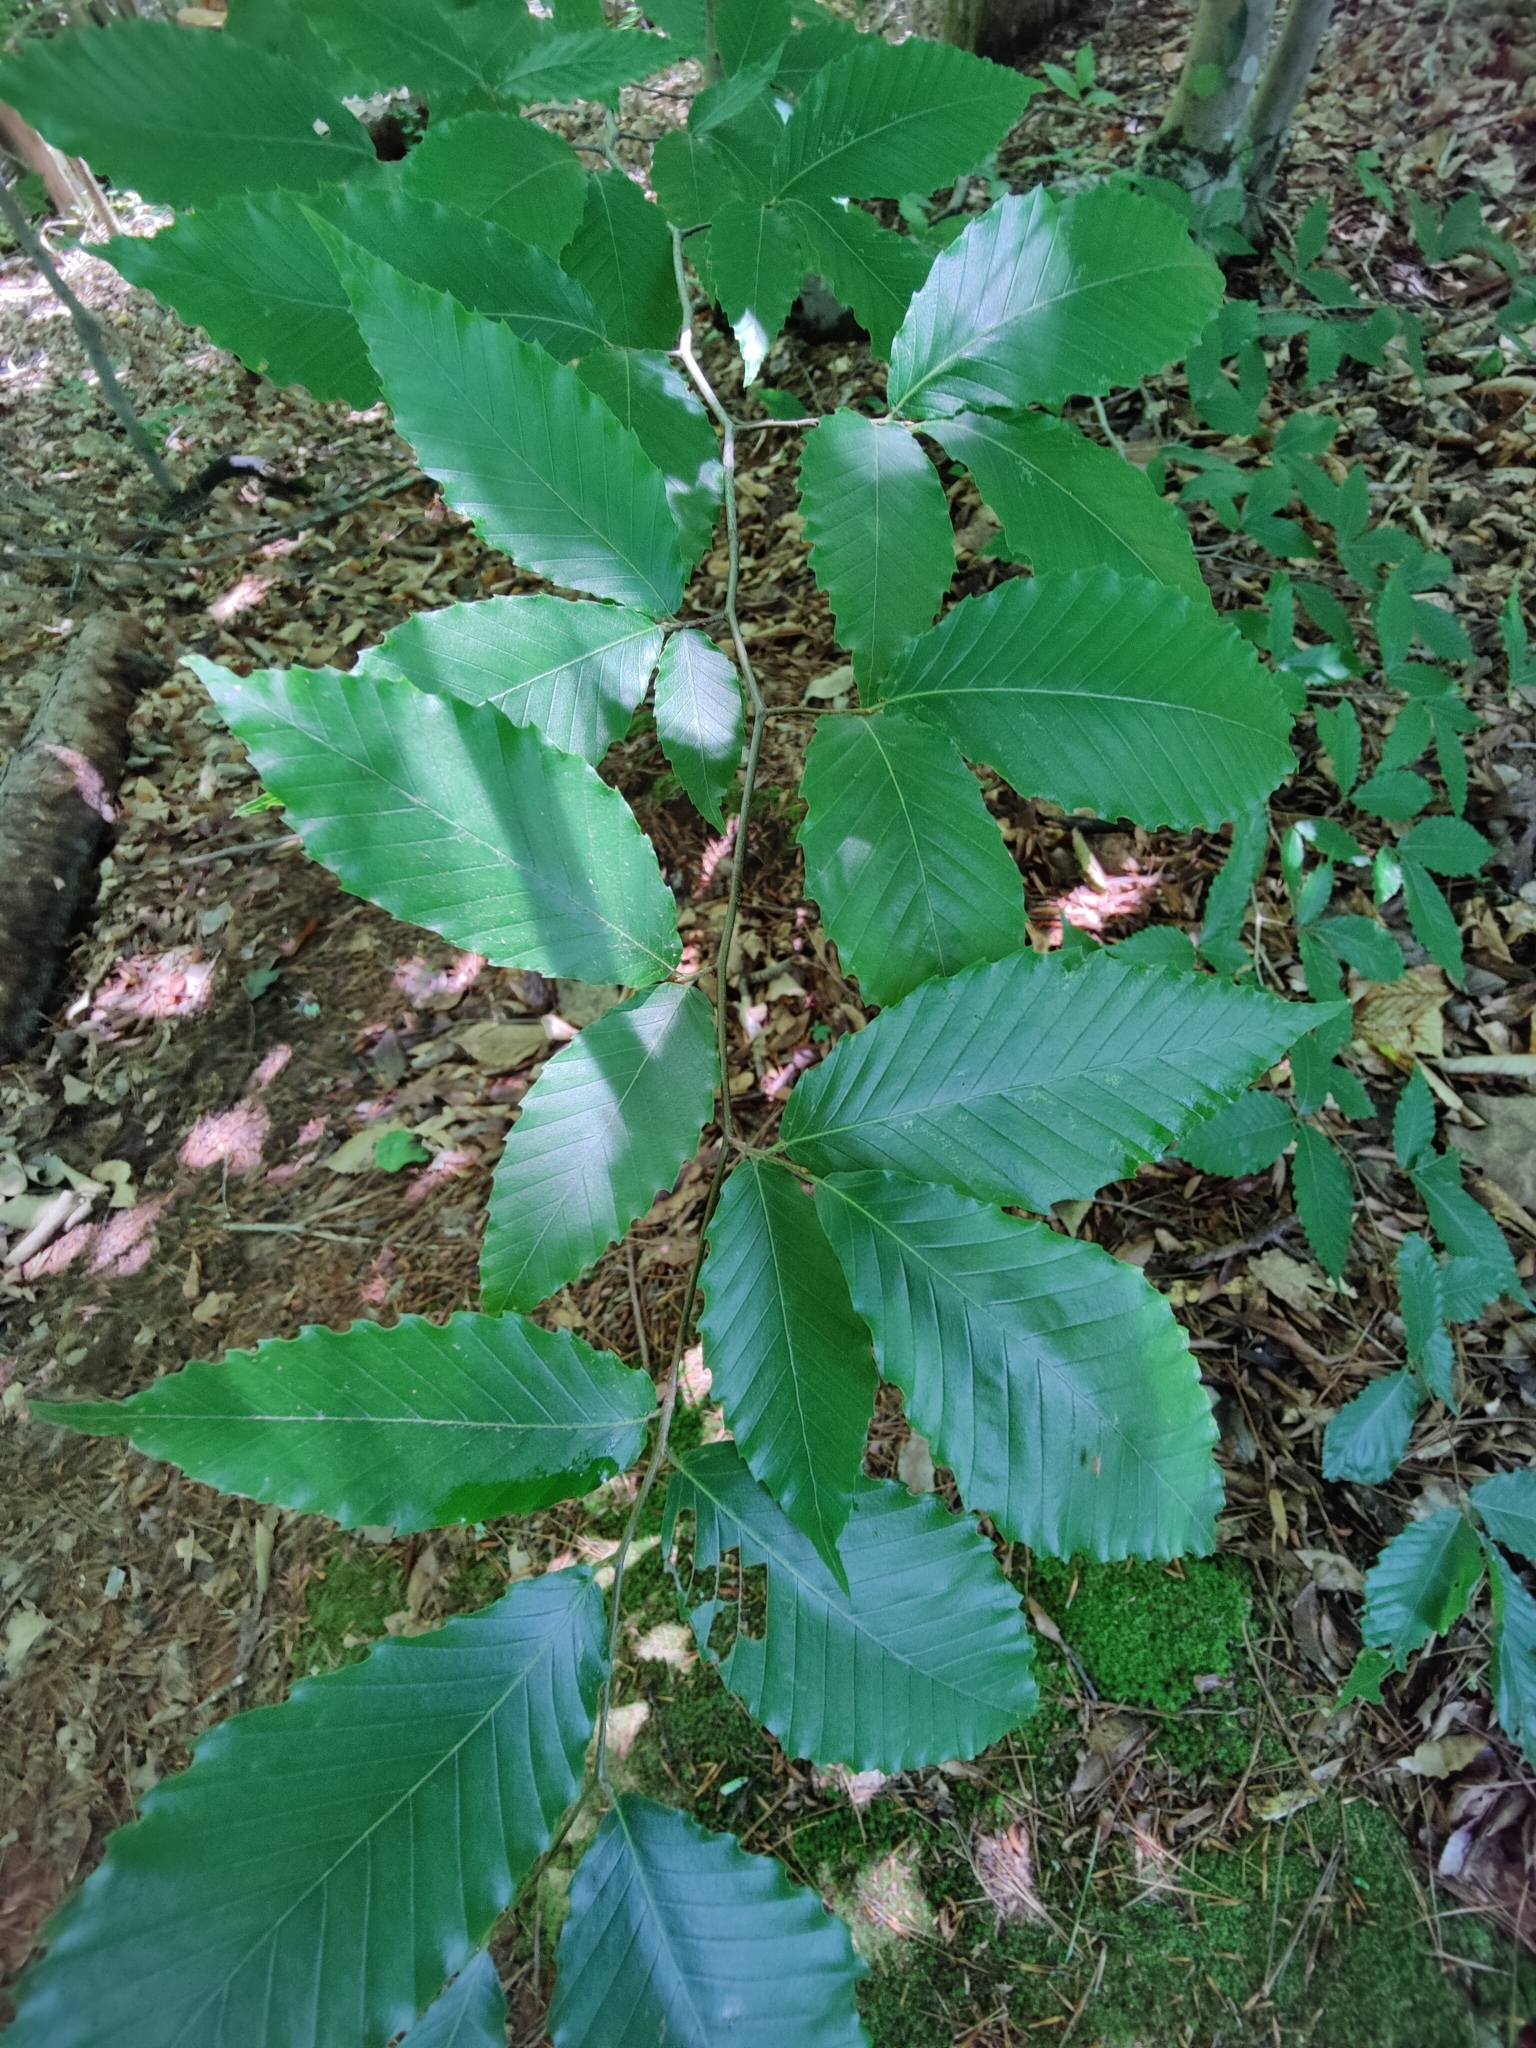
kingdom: Plantae
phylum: Tracheophyta
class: Magnoliopsida
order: Fagales
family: Fagaceae
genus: Fagus
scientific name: Fagus grandifolia
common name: American beech
